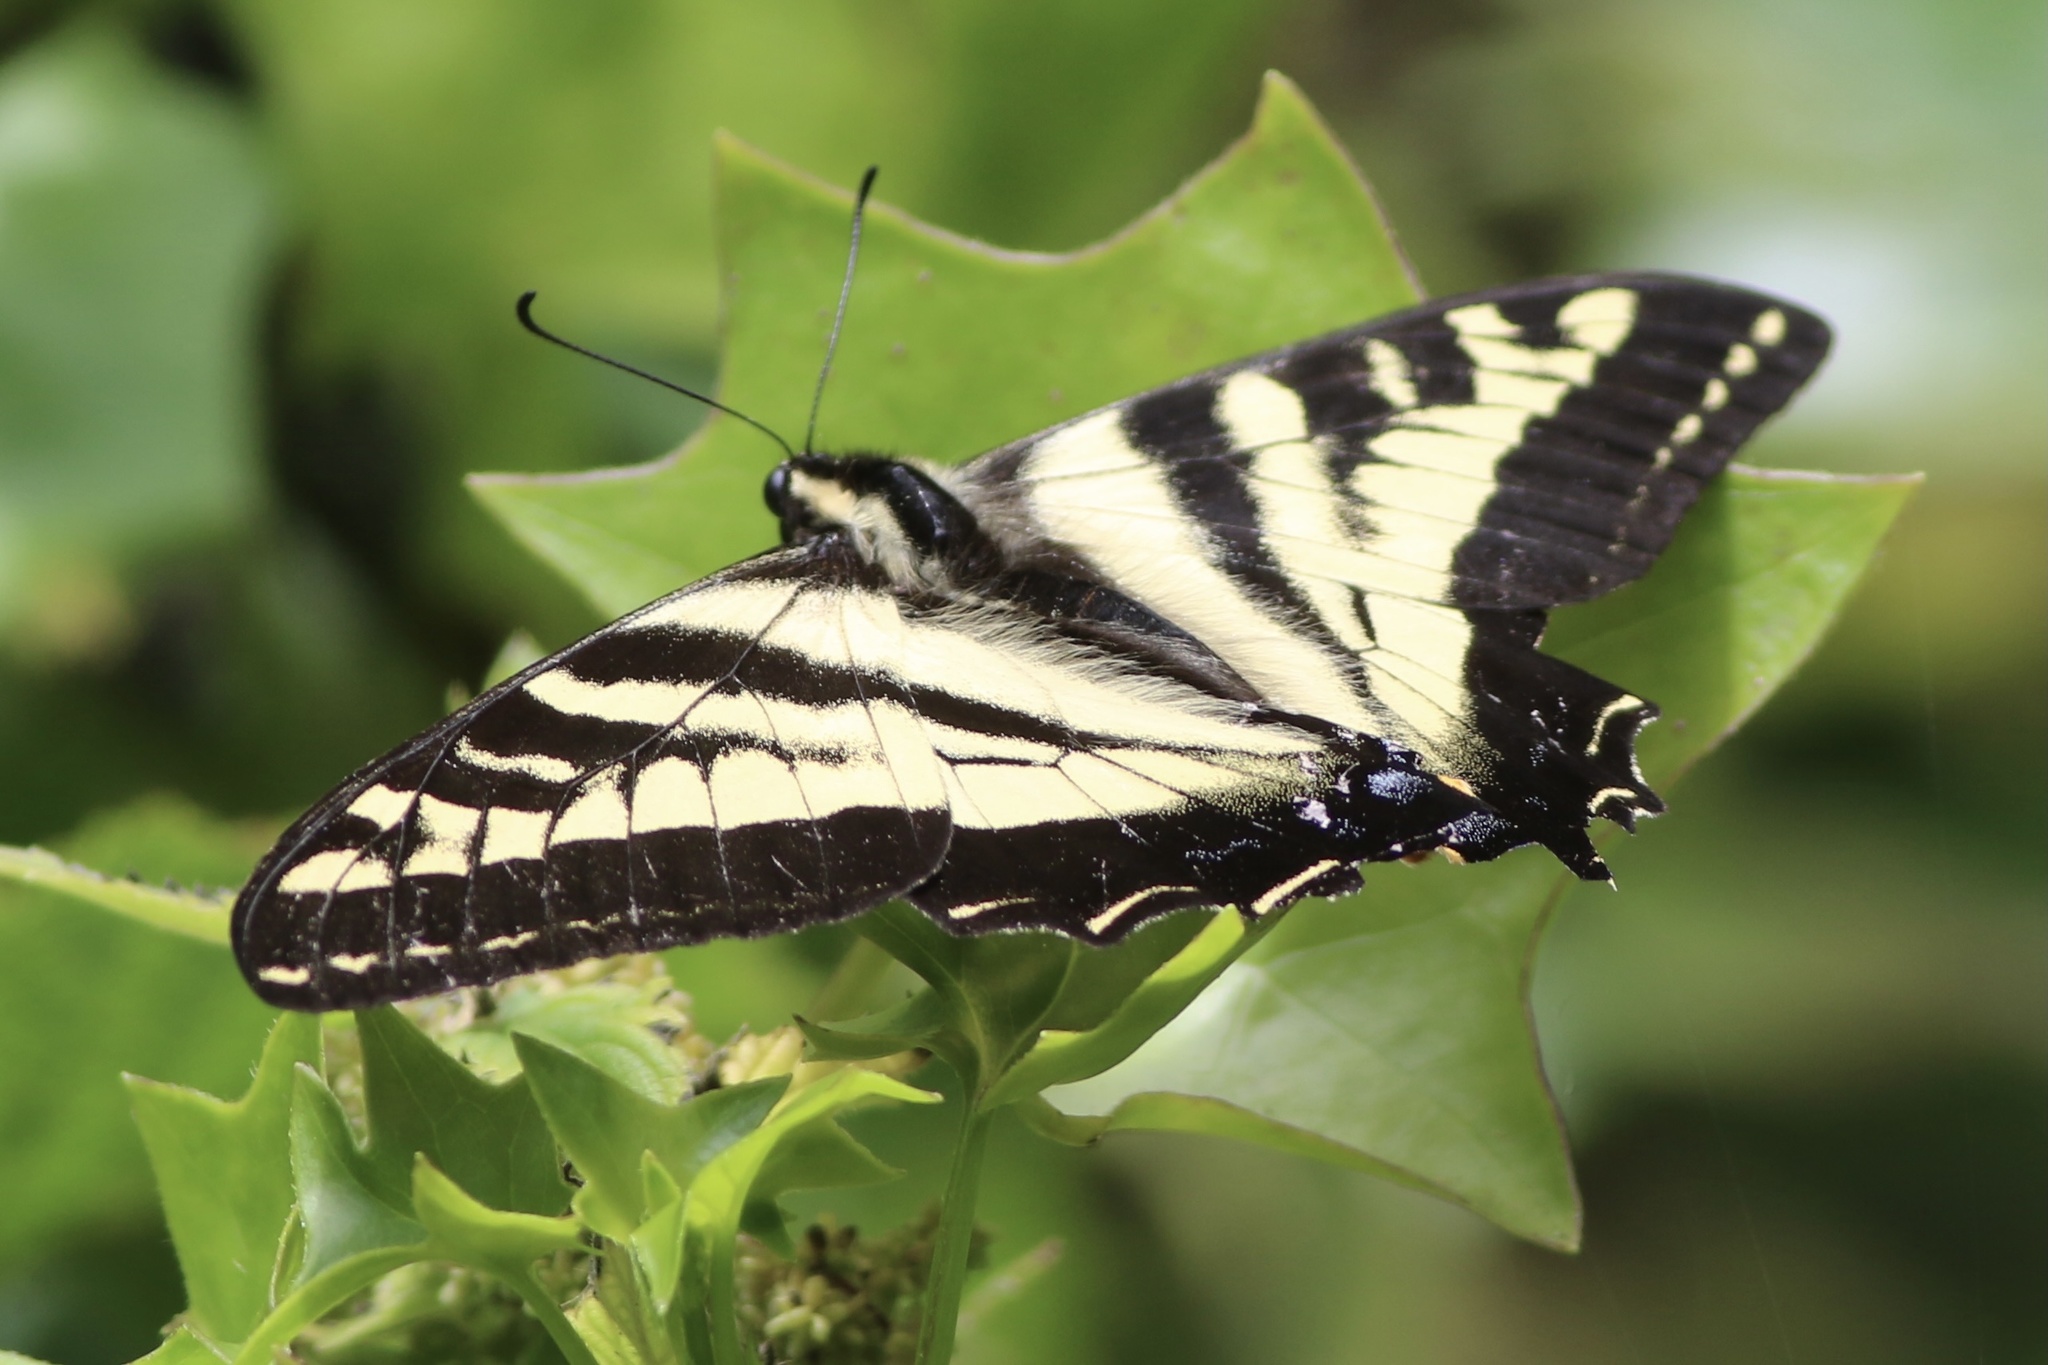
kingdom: Animalia
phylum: Arthropoda
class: Insecta
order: Lepidoptera
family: Papilionidae
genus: Papilio
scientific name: Papilio rutulus
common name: Western tiger swallowtail
